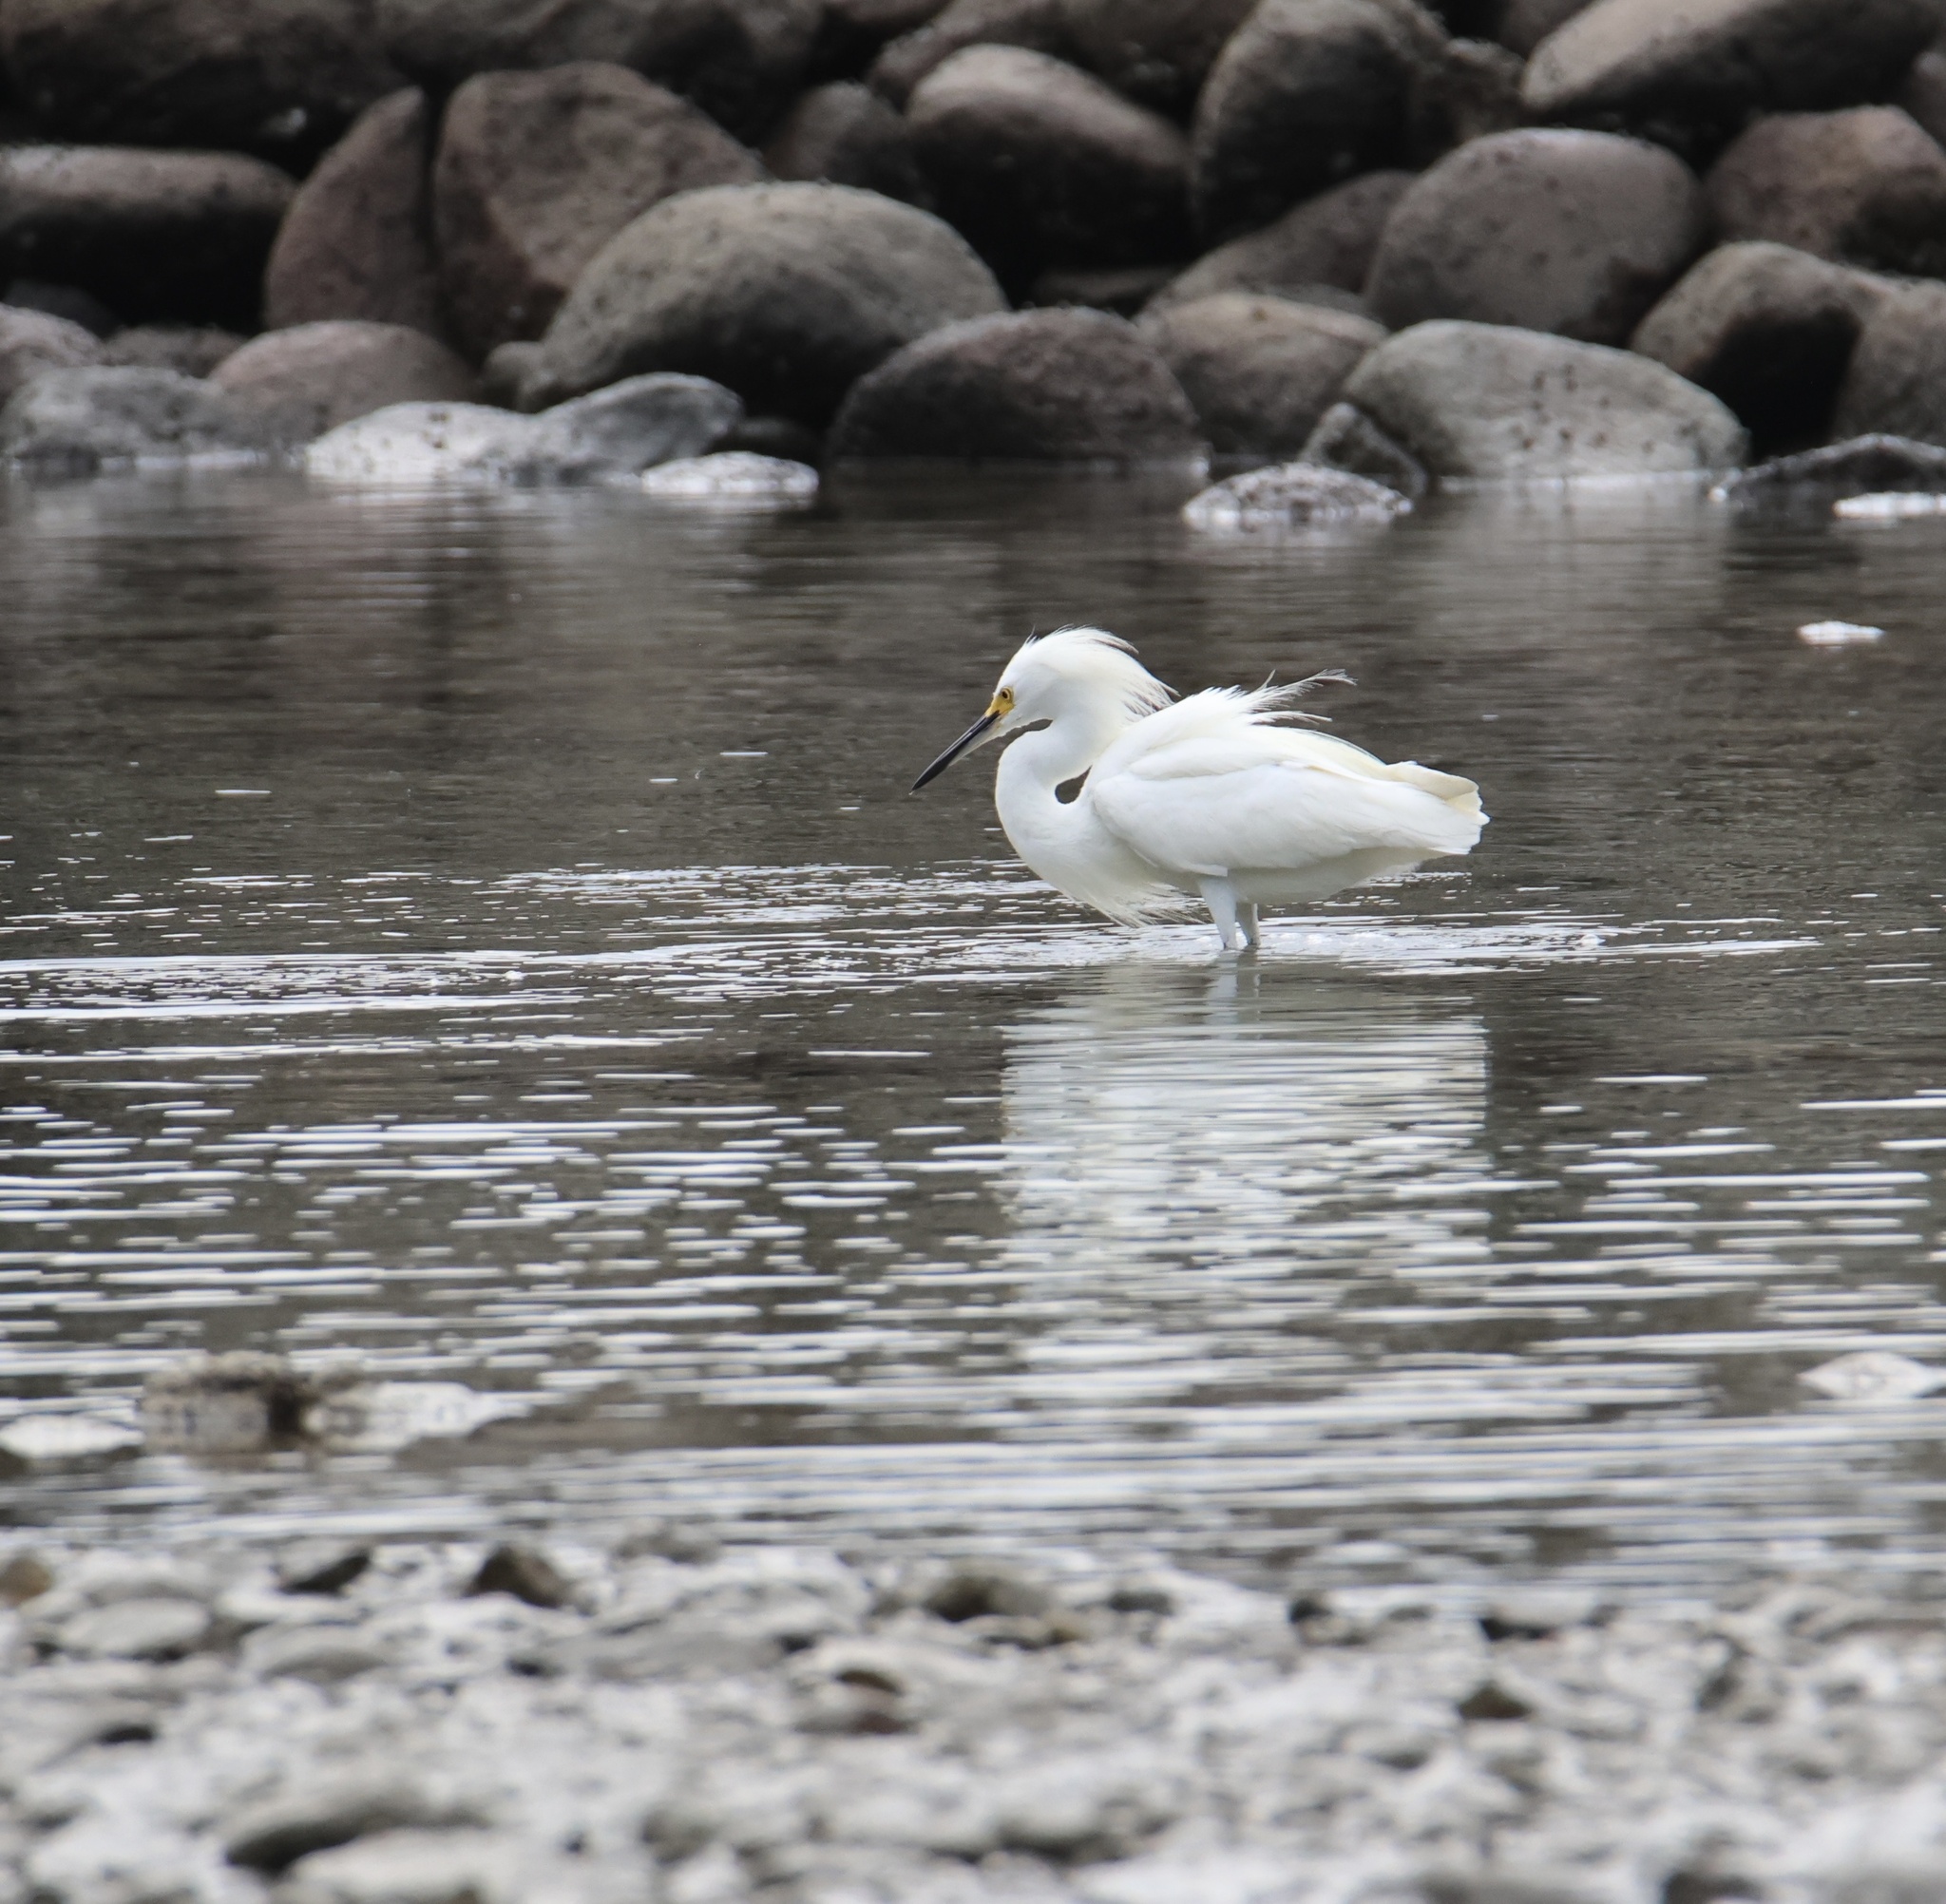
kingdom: Animalia
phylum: Chordata
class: Aves
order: Pelecaniformes
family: Ardeidae
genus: Egretta
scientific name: Egretta thula
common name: Snowy egret
